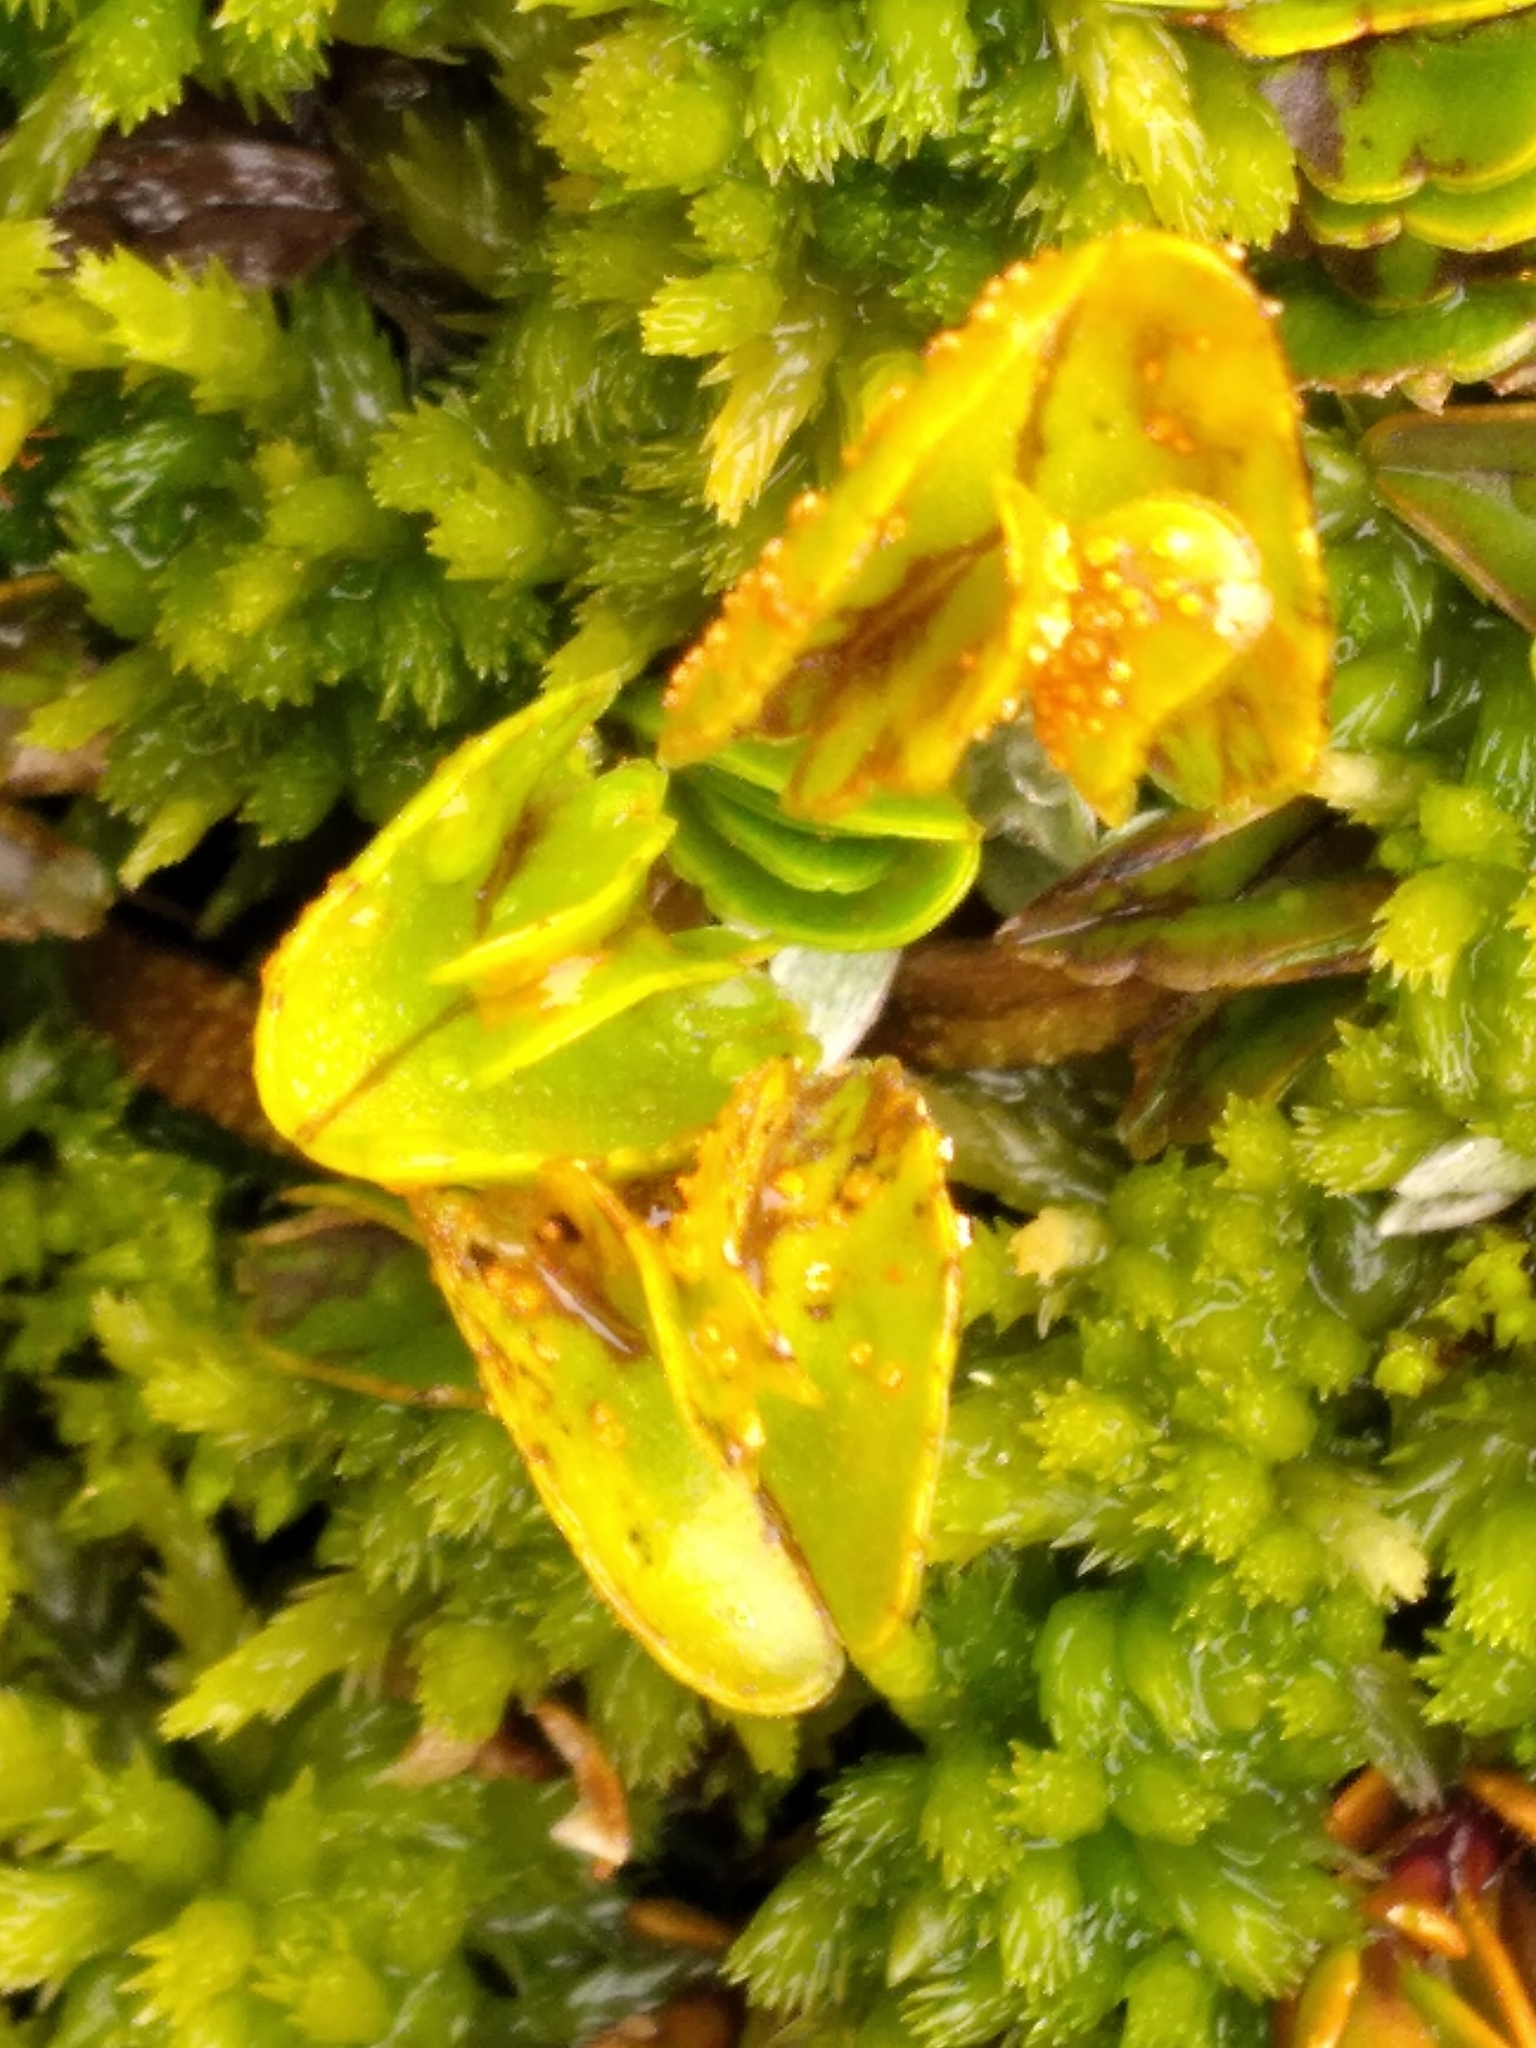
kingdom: Fungi
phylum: Basidiomycota
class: Pucciniomycetes
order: Pucciniales
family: Pucciniaceae
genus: Aecidium
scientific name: Aecidium westlandicum
